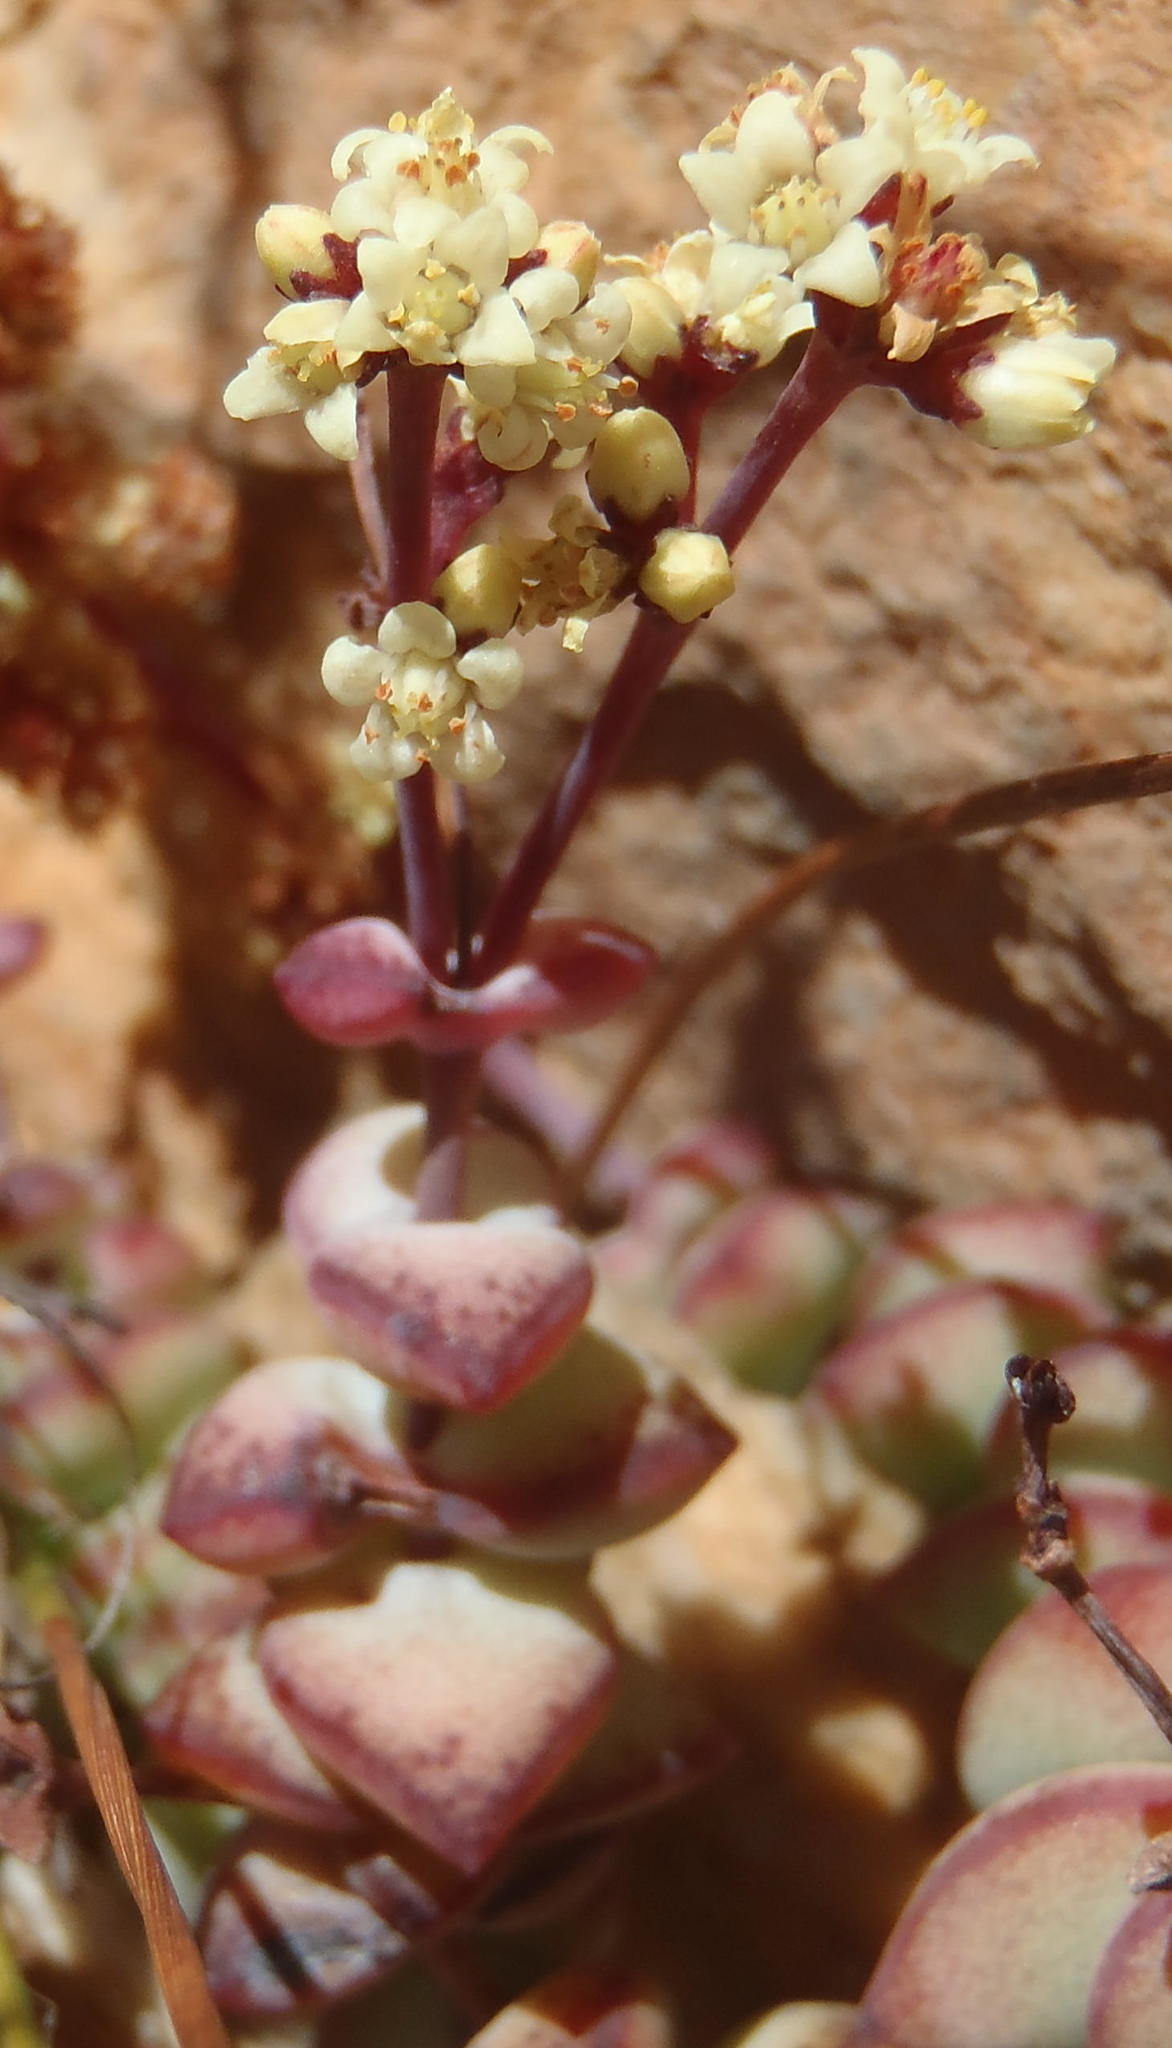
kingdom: Plantae
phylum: Tracheophyta
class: Magnoliopsida
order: Saxifragales
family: Crassulaceae
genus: Crassula
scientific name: Crassula perforata
